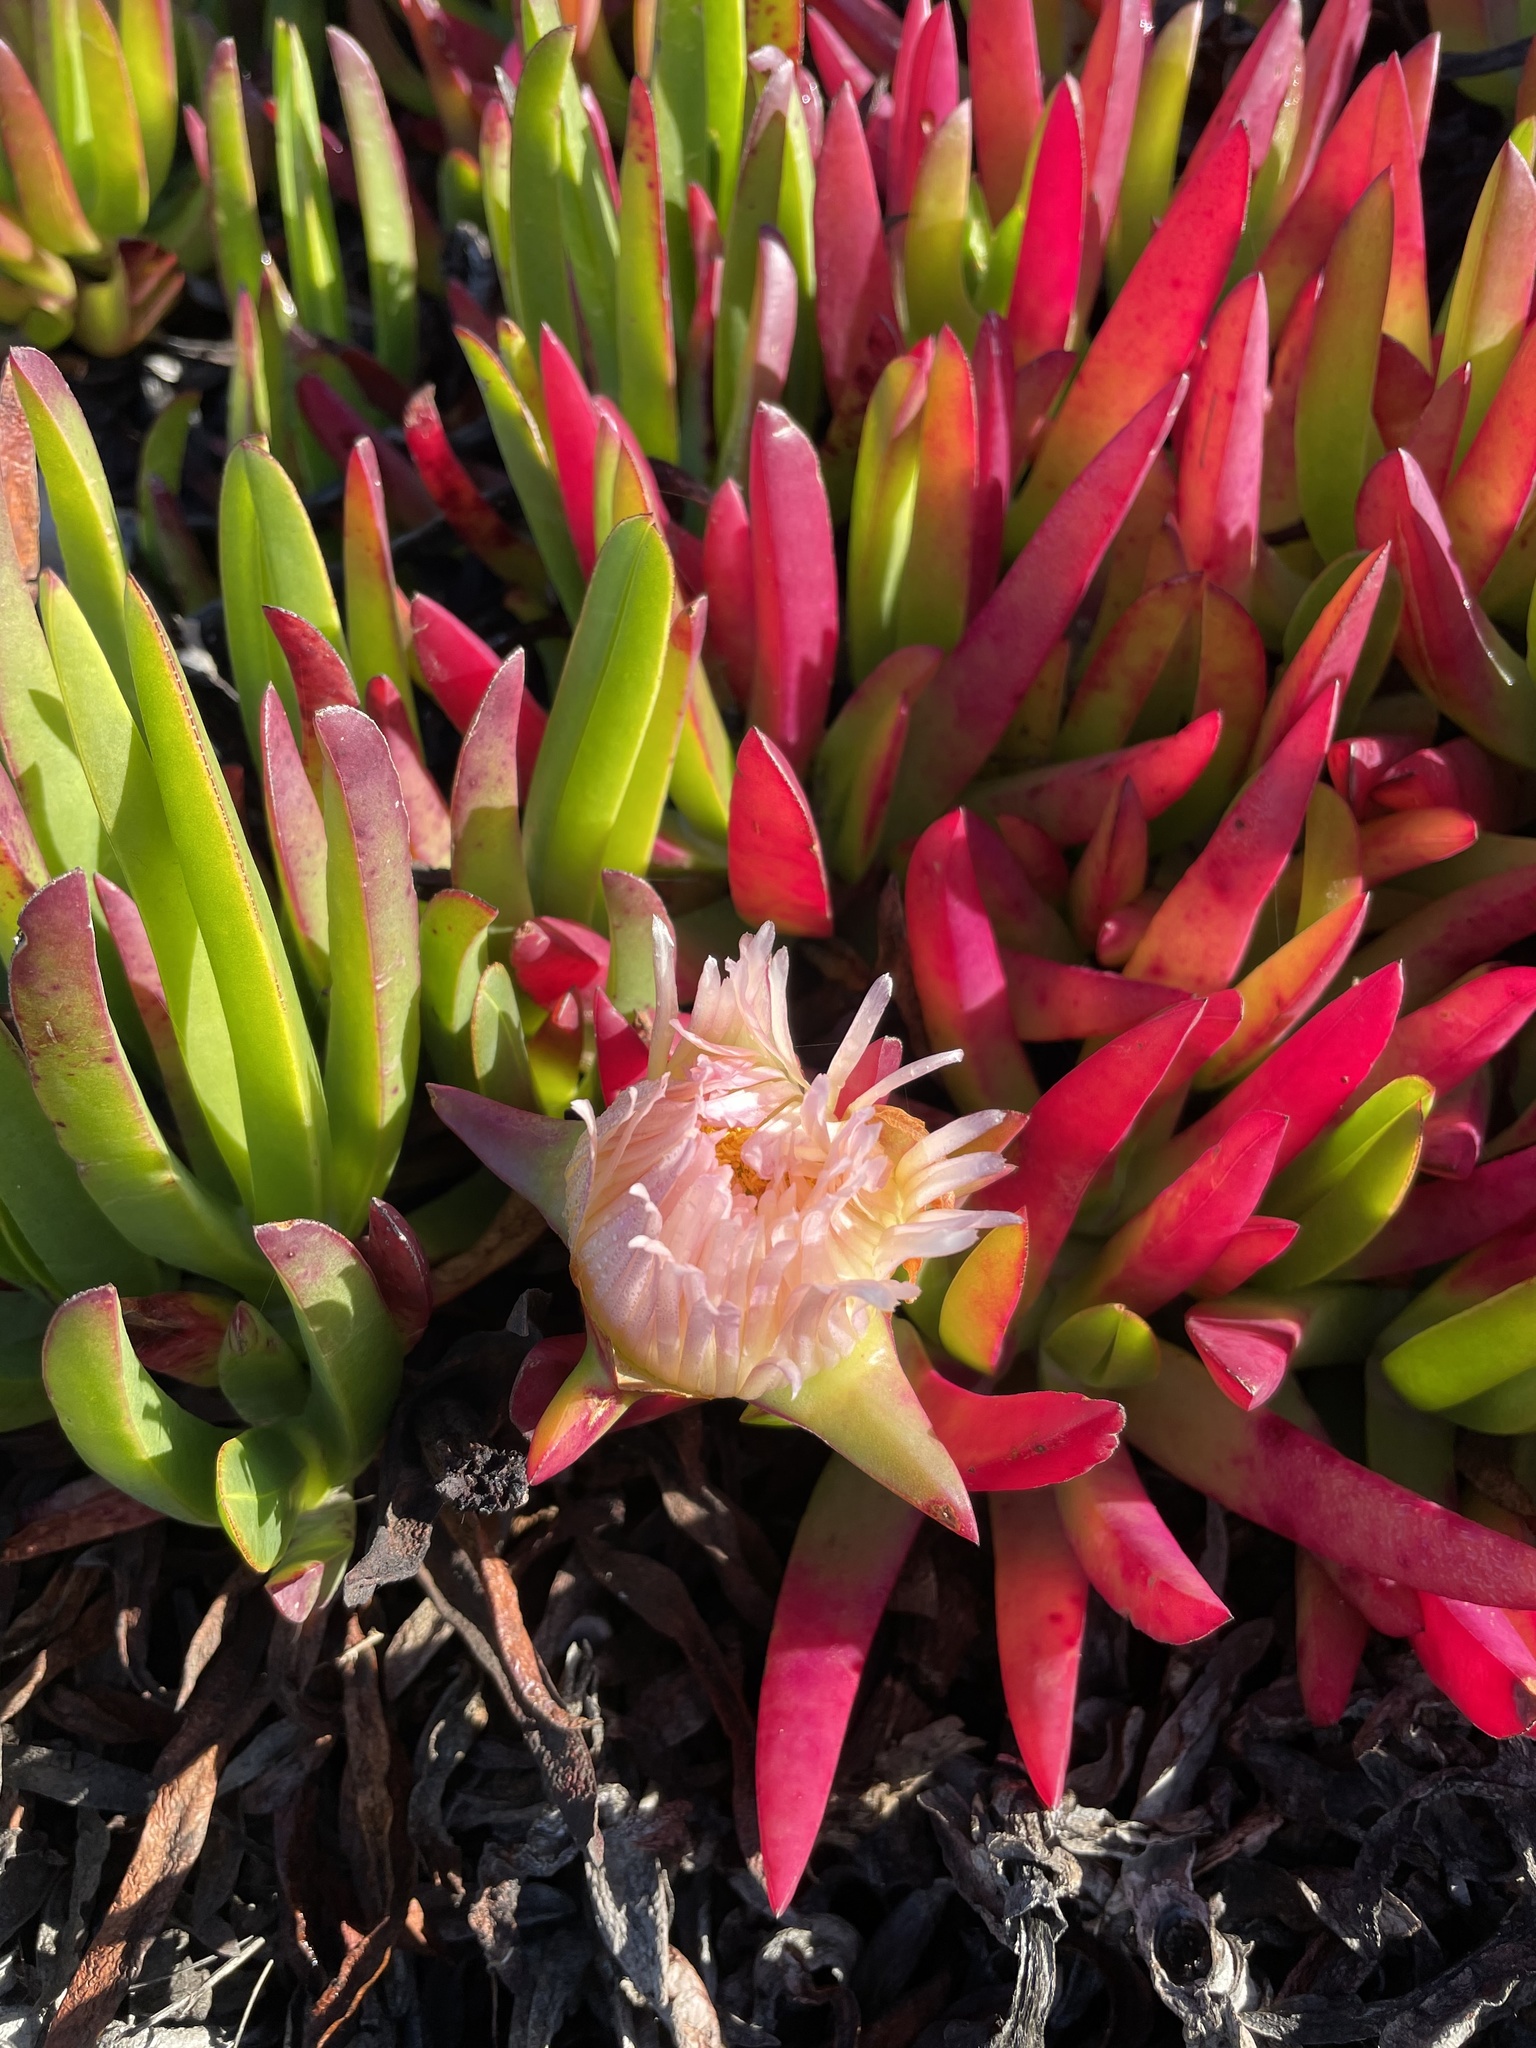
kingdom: Plantae
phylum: Tracheophyta
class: Magnoliopsida
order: Caryophyllales
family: Aizoaceae
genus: Carpobrotus
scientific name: Carpobrotus edulis
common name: Hottentot-fig
